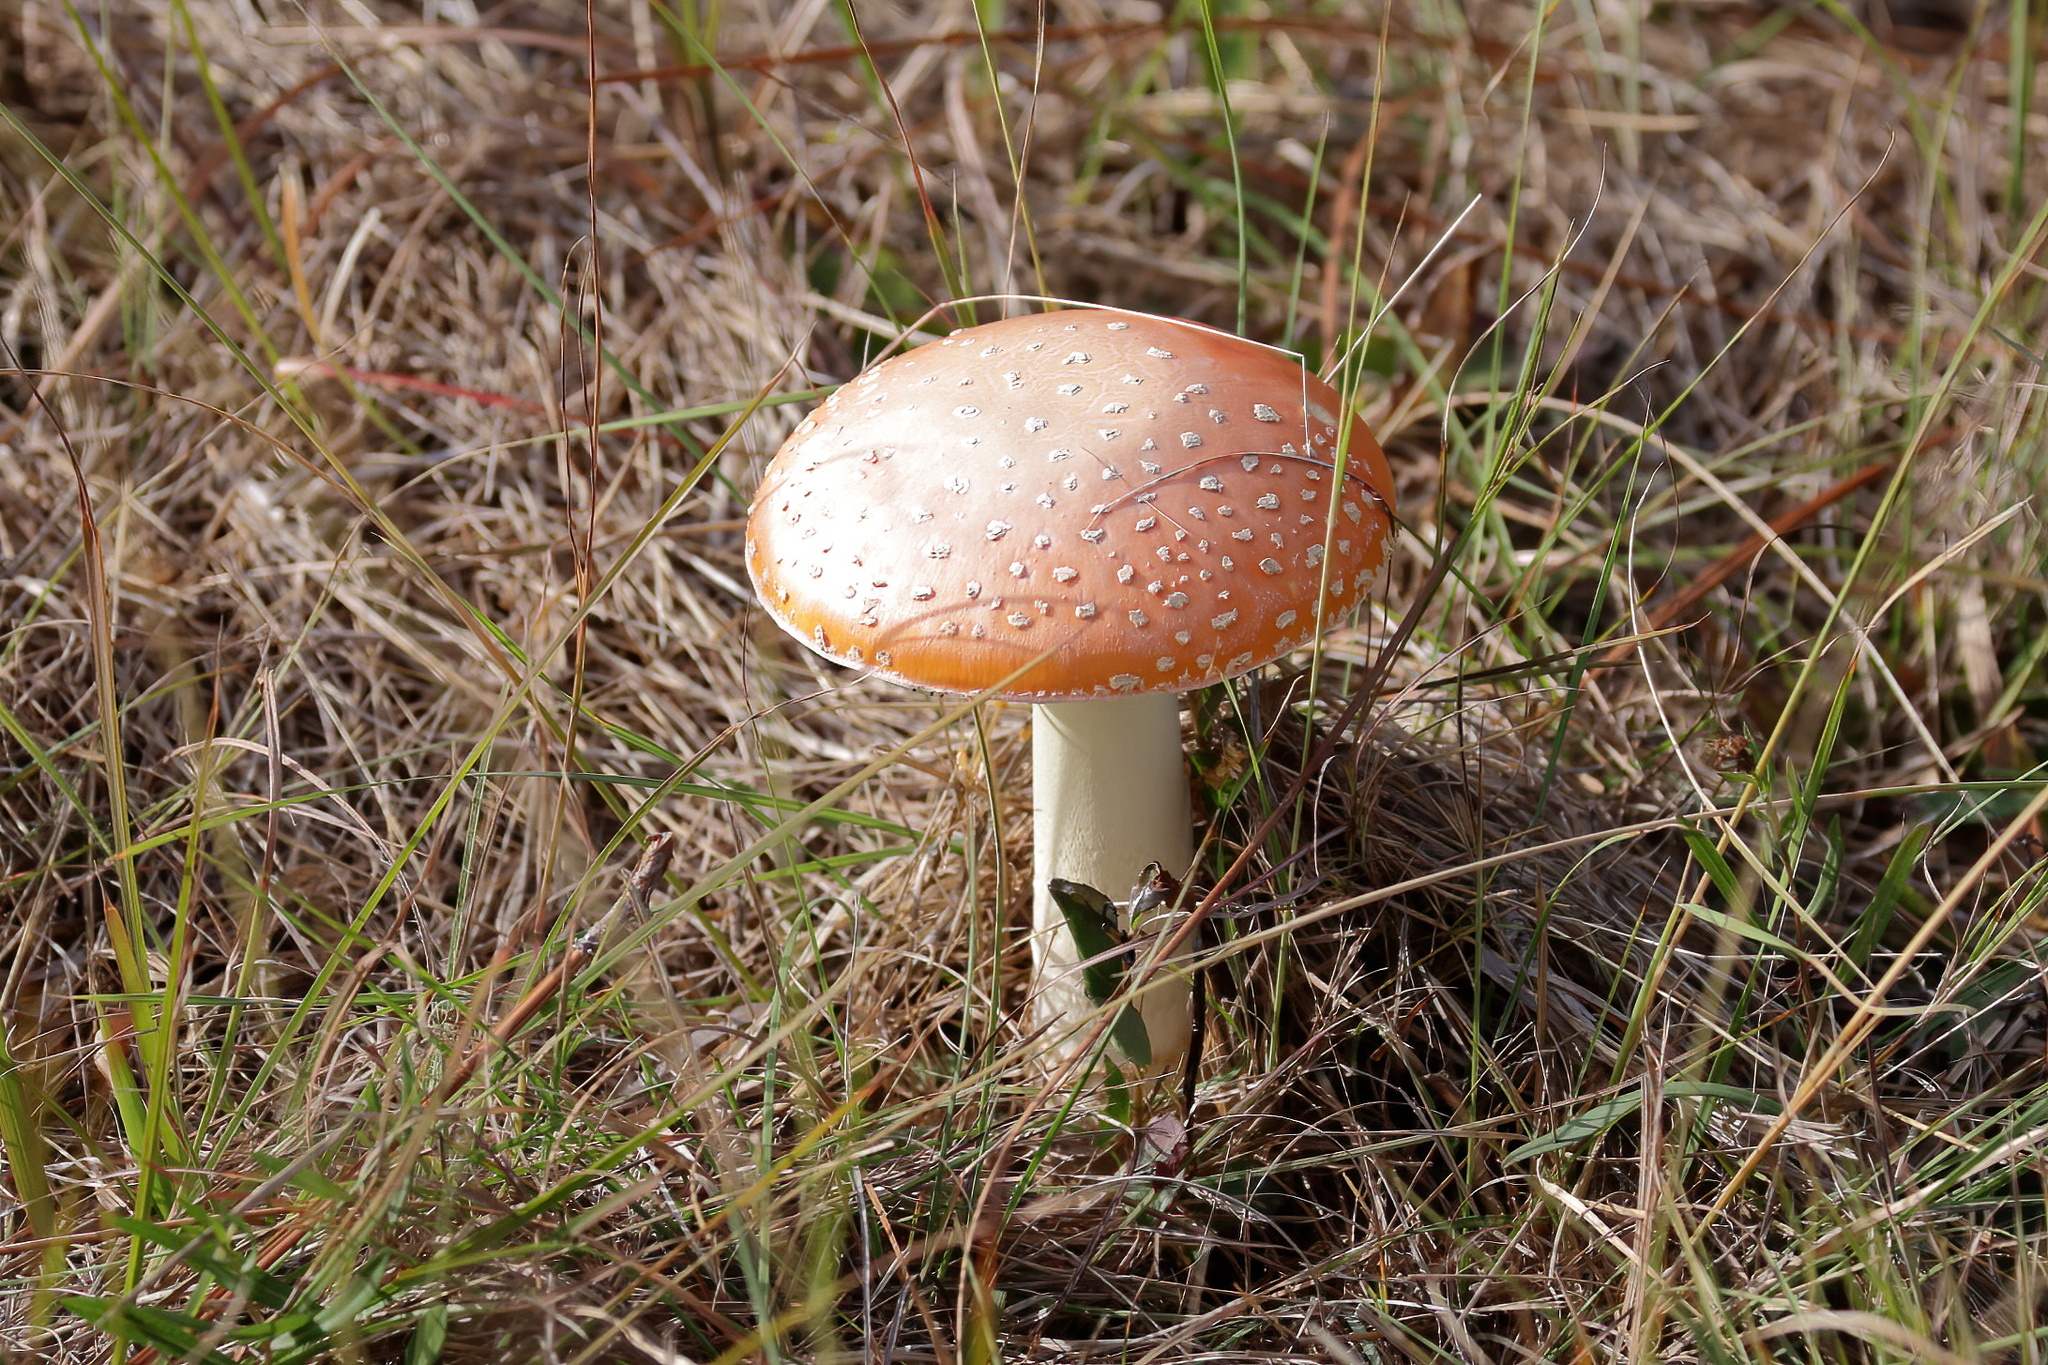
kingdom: Fungi
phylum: Basidiomycota
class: Agaricomycetes
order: Agaricales
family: Amanitaceae
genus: Amanita
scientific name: Amanita persicina
